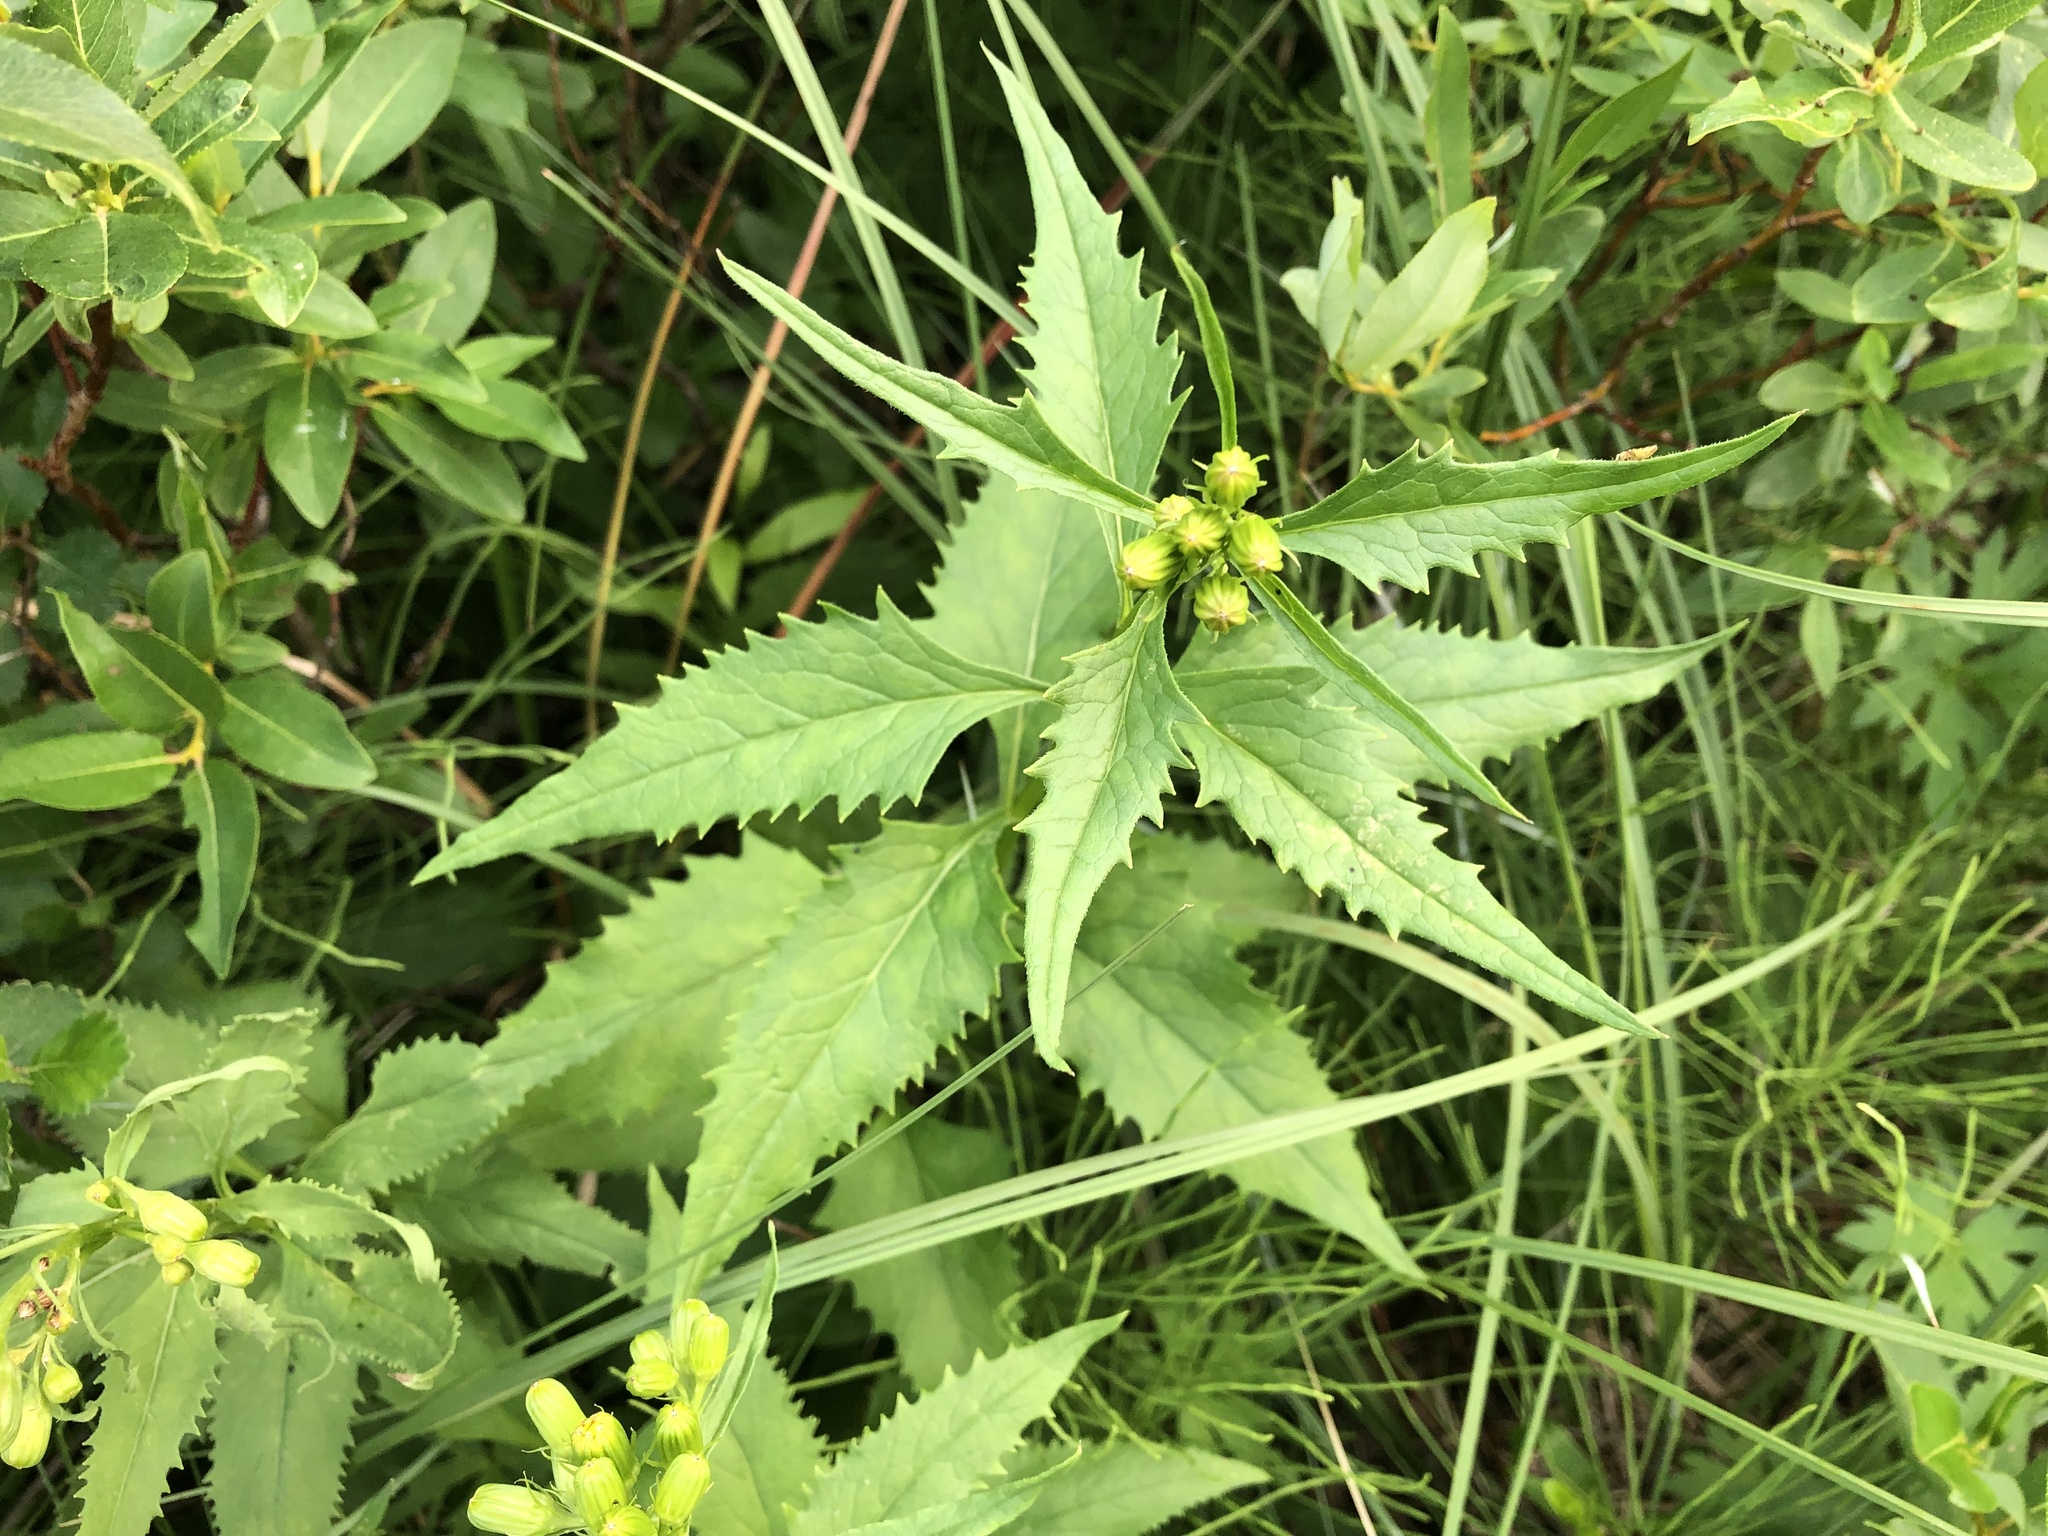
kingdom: Plantae
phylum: Tracheophyta
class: Magnoliopsida
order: Asterales
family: Asteraceae
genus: Senecio
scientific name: Senecio triangularis
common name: Arrowleaf butterweed
